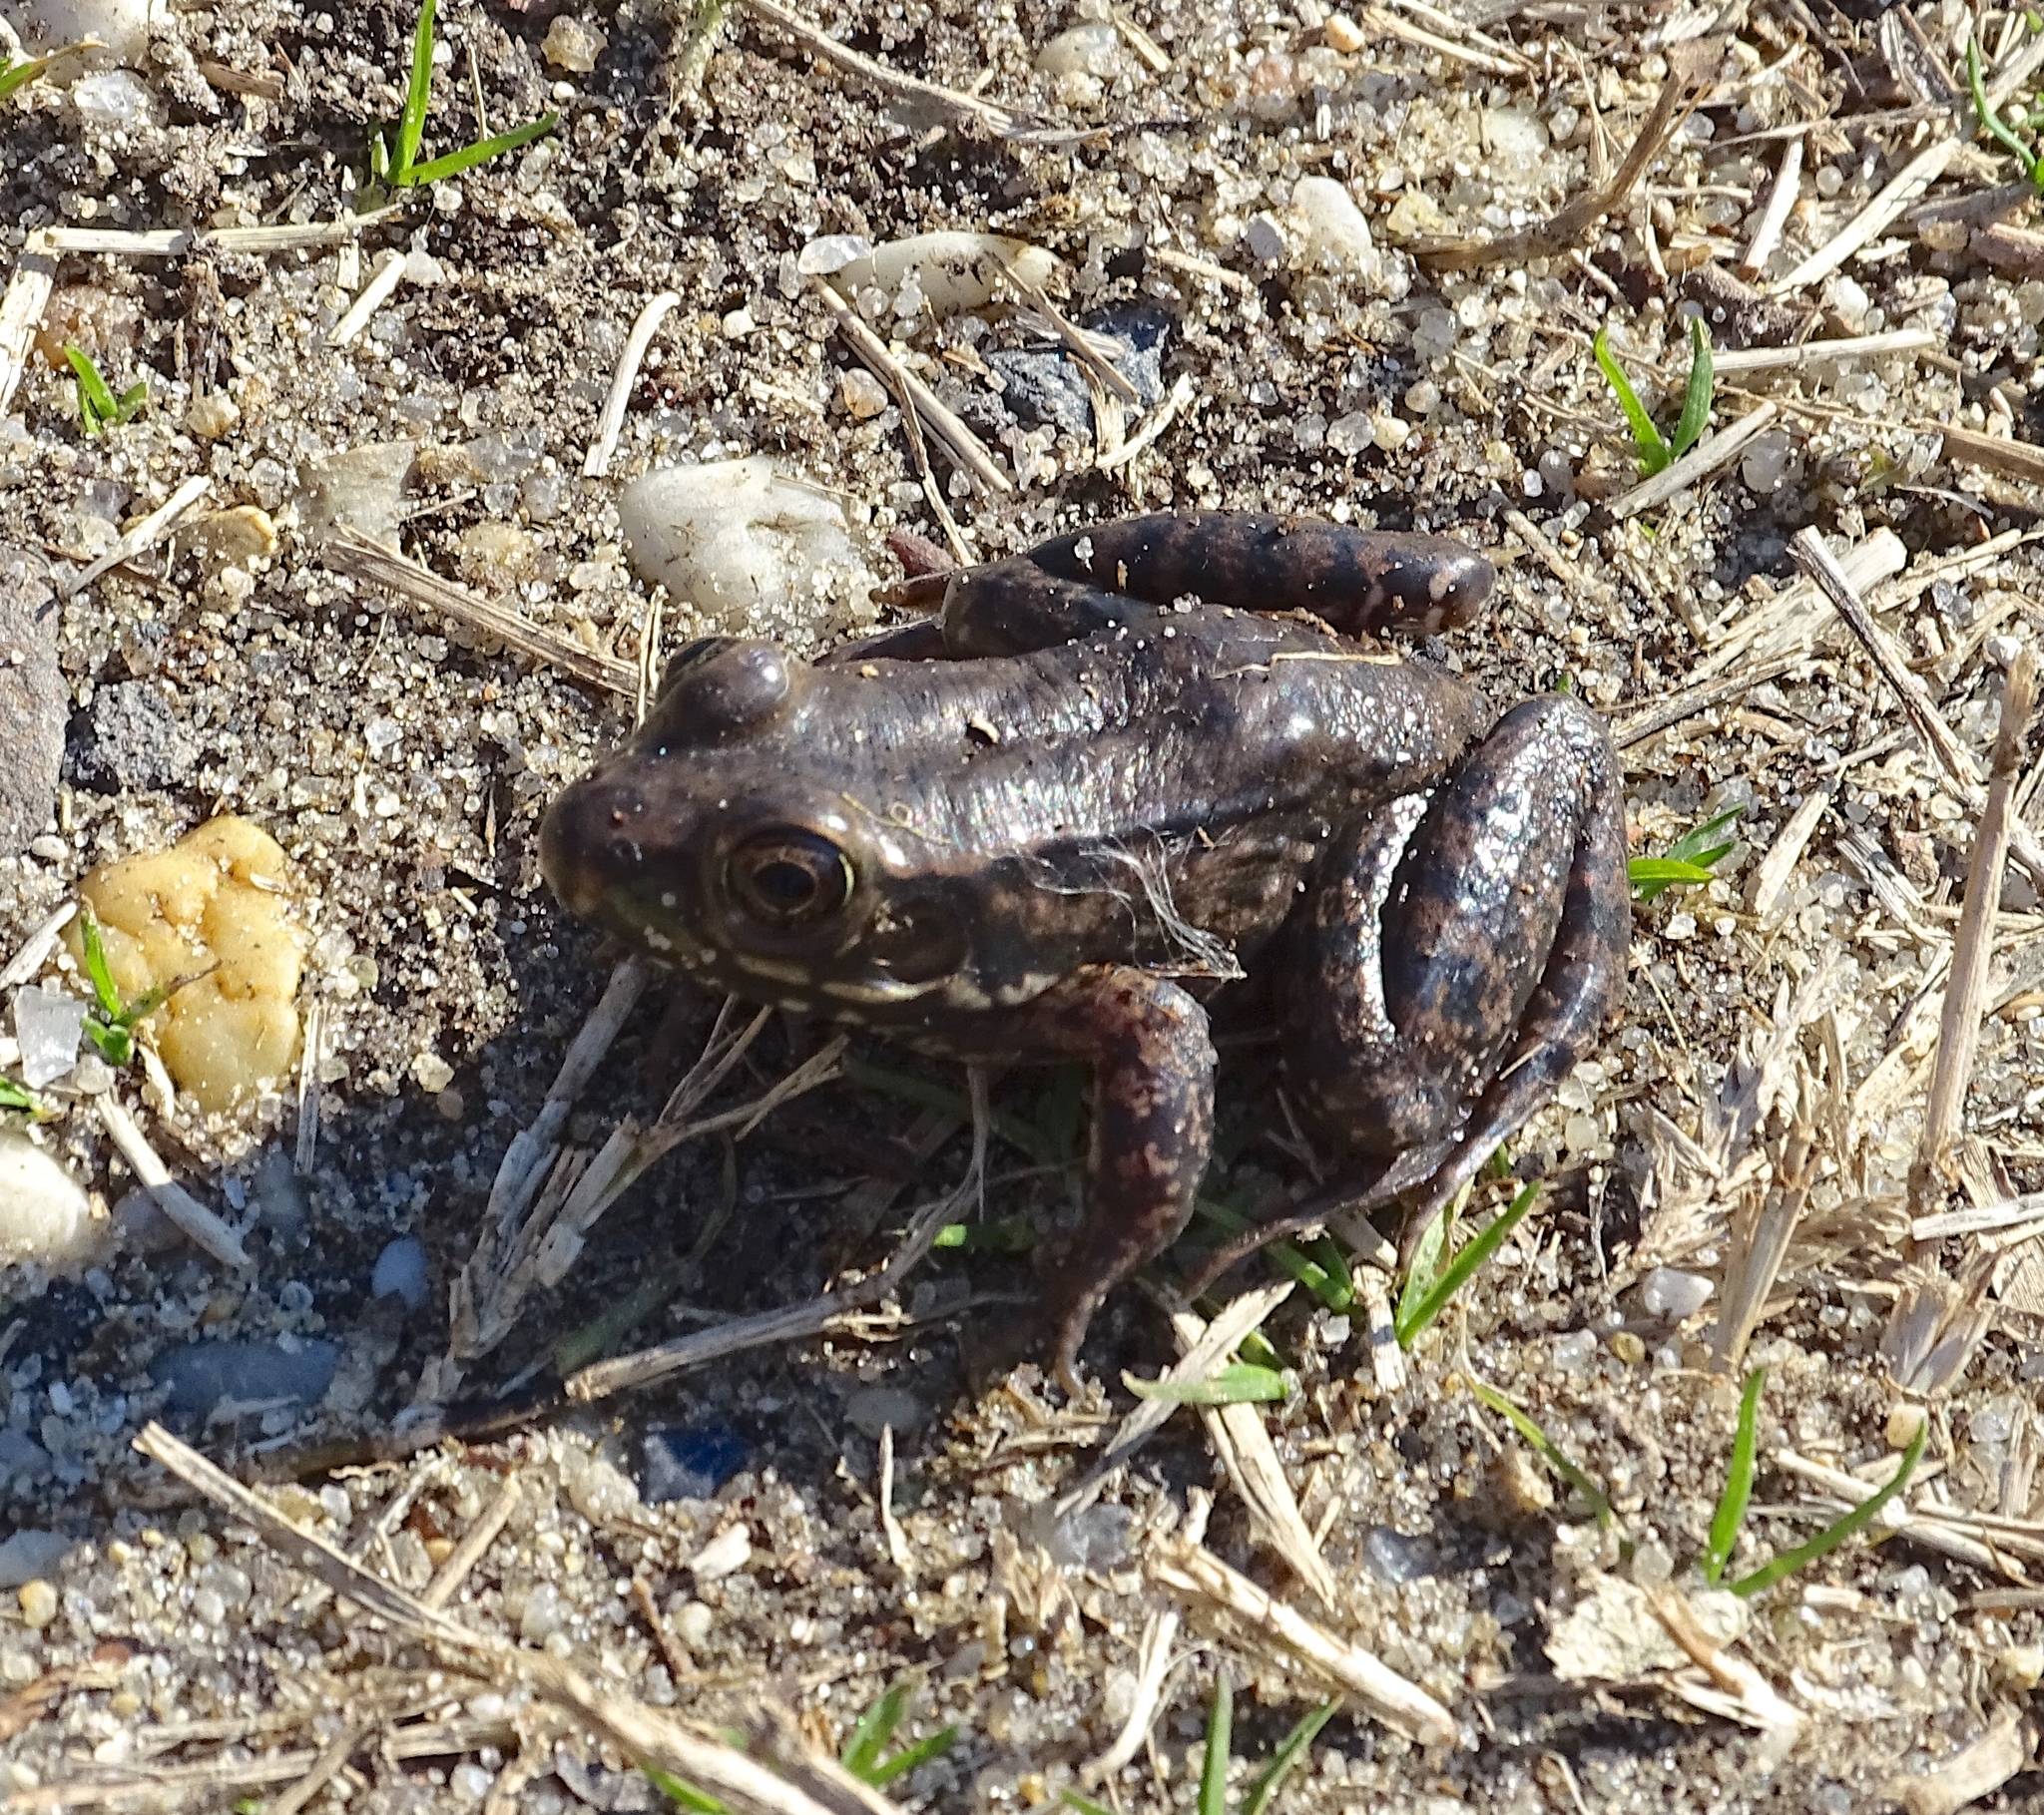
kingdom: Animalia
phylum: Chordata
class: Amphibia
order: Anura
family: Ranidae
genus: Lithobates
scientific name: Lithobates clamitans
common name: Green frog
